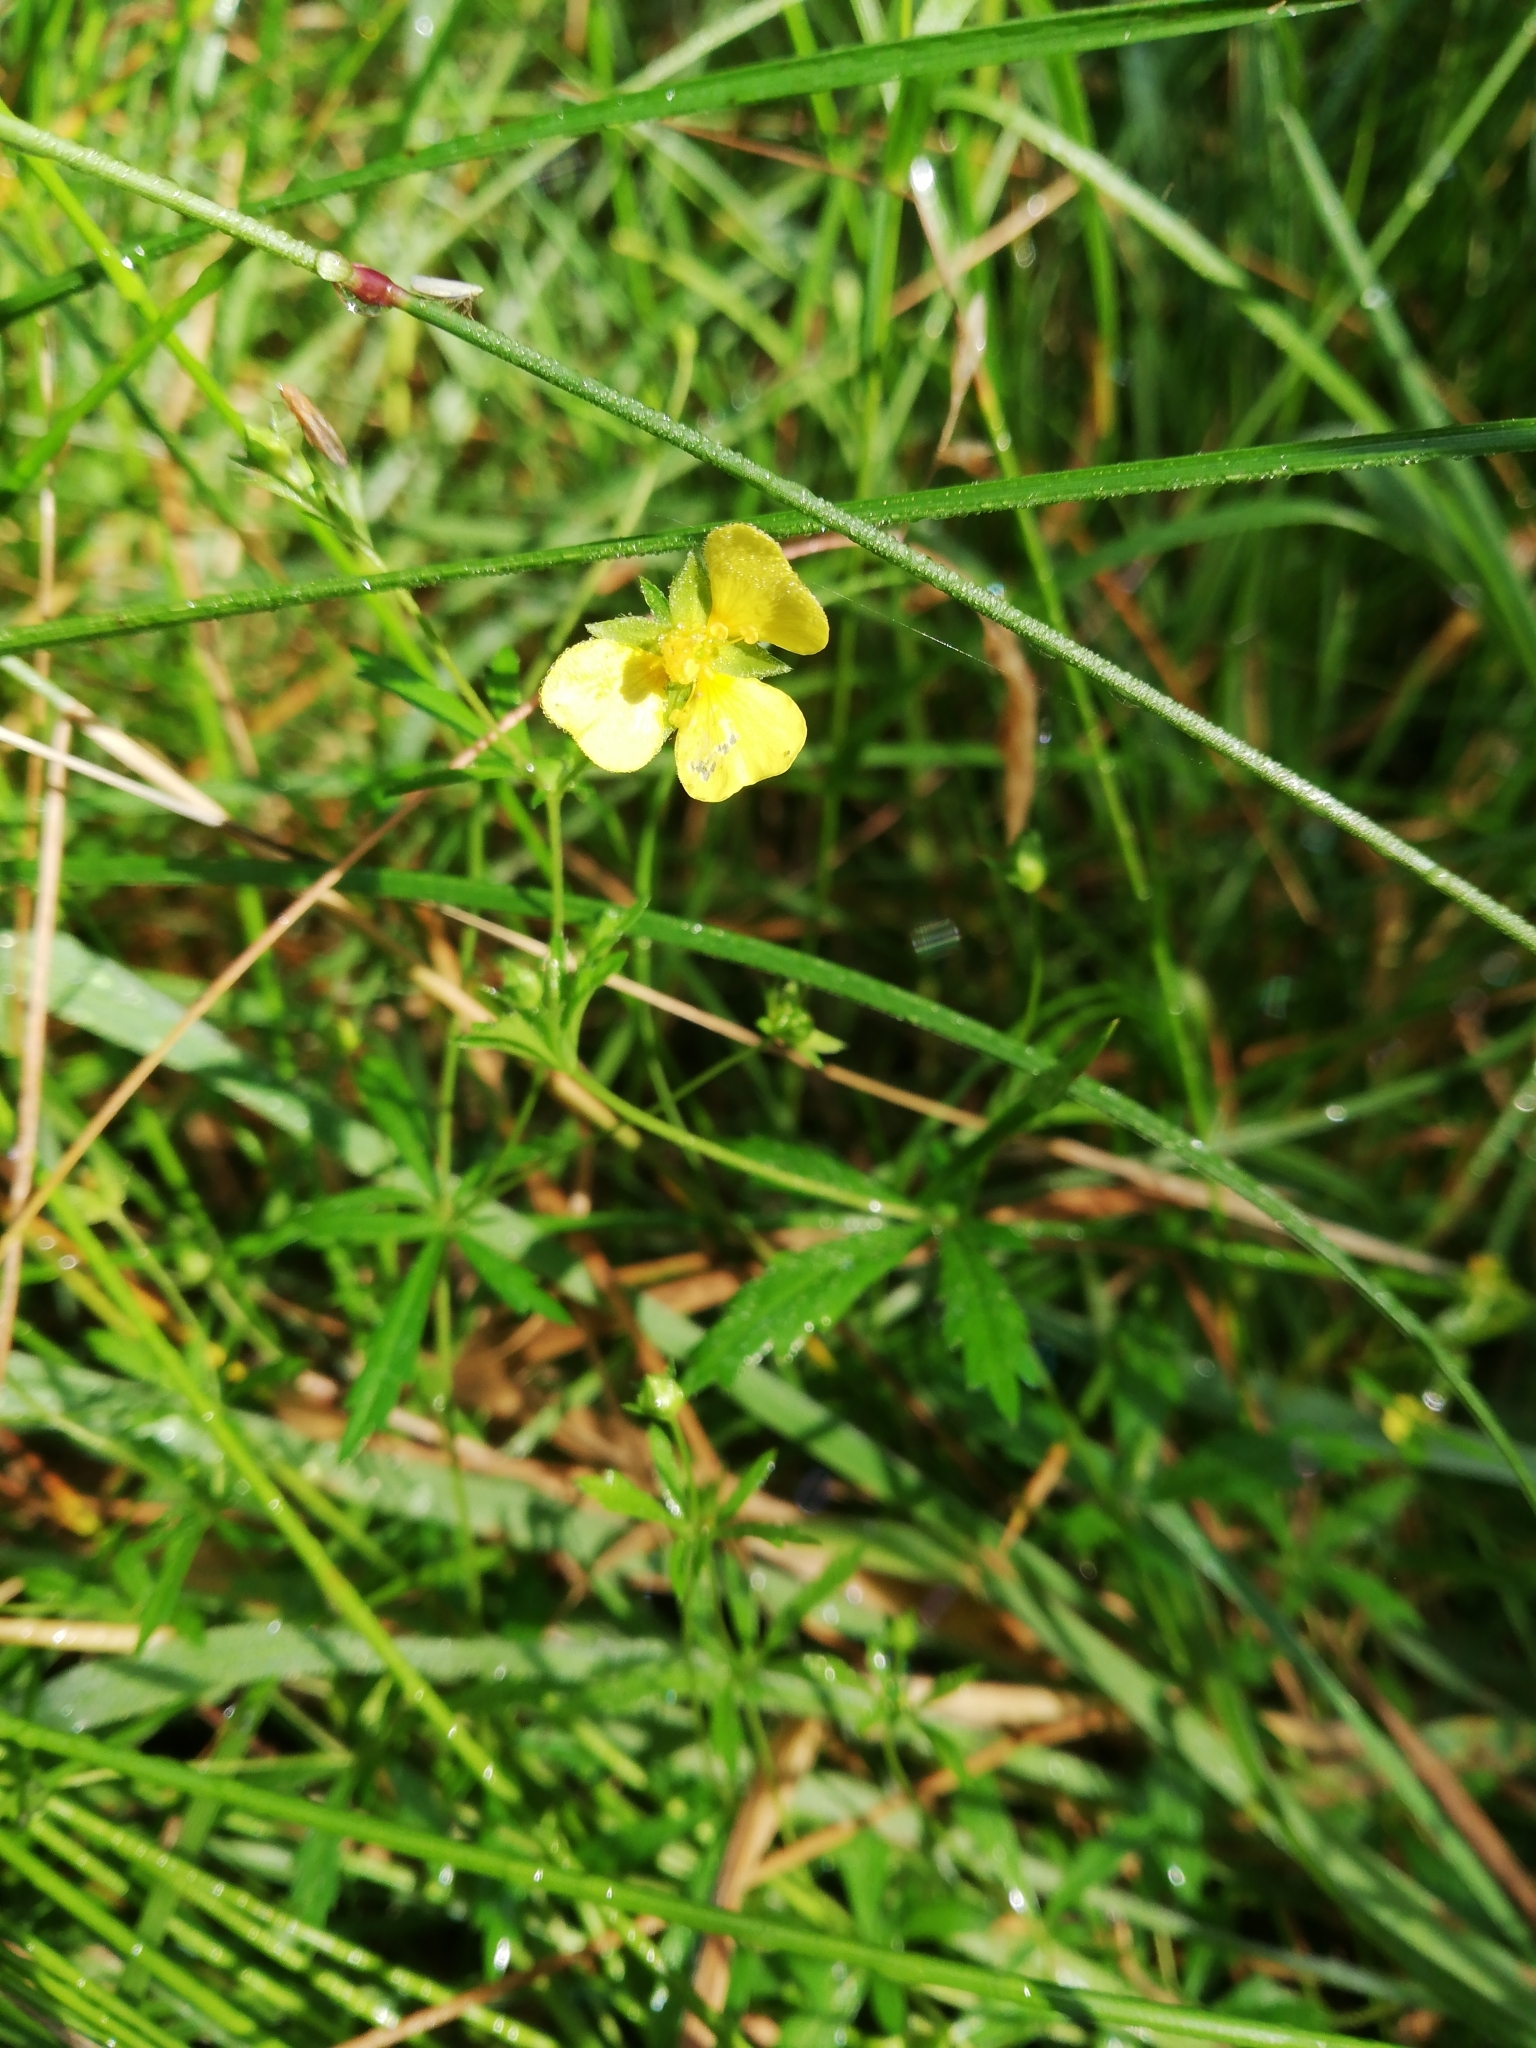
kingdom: Plantae
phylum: Tracheophyta
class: Magnoliopsida
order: Rosales
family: Rosaceae
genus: Potentilla
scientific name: Potentilla erecta
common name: Tormentil
